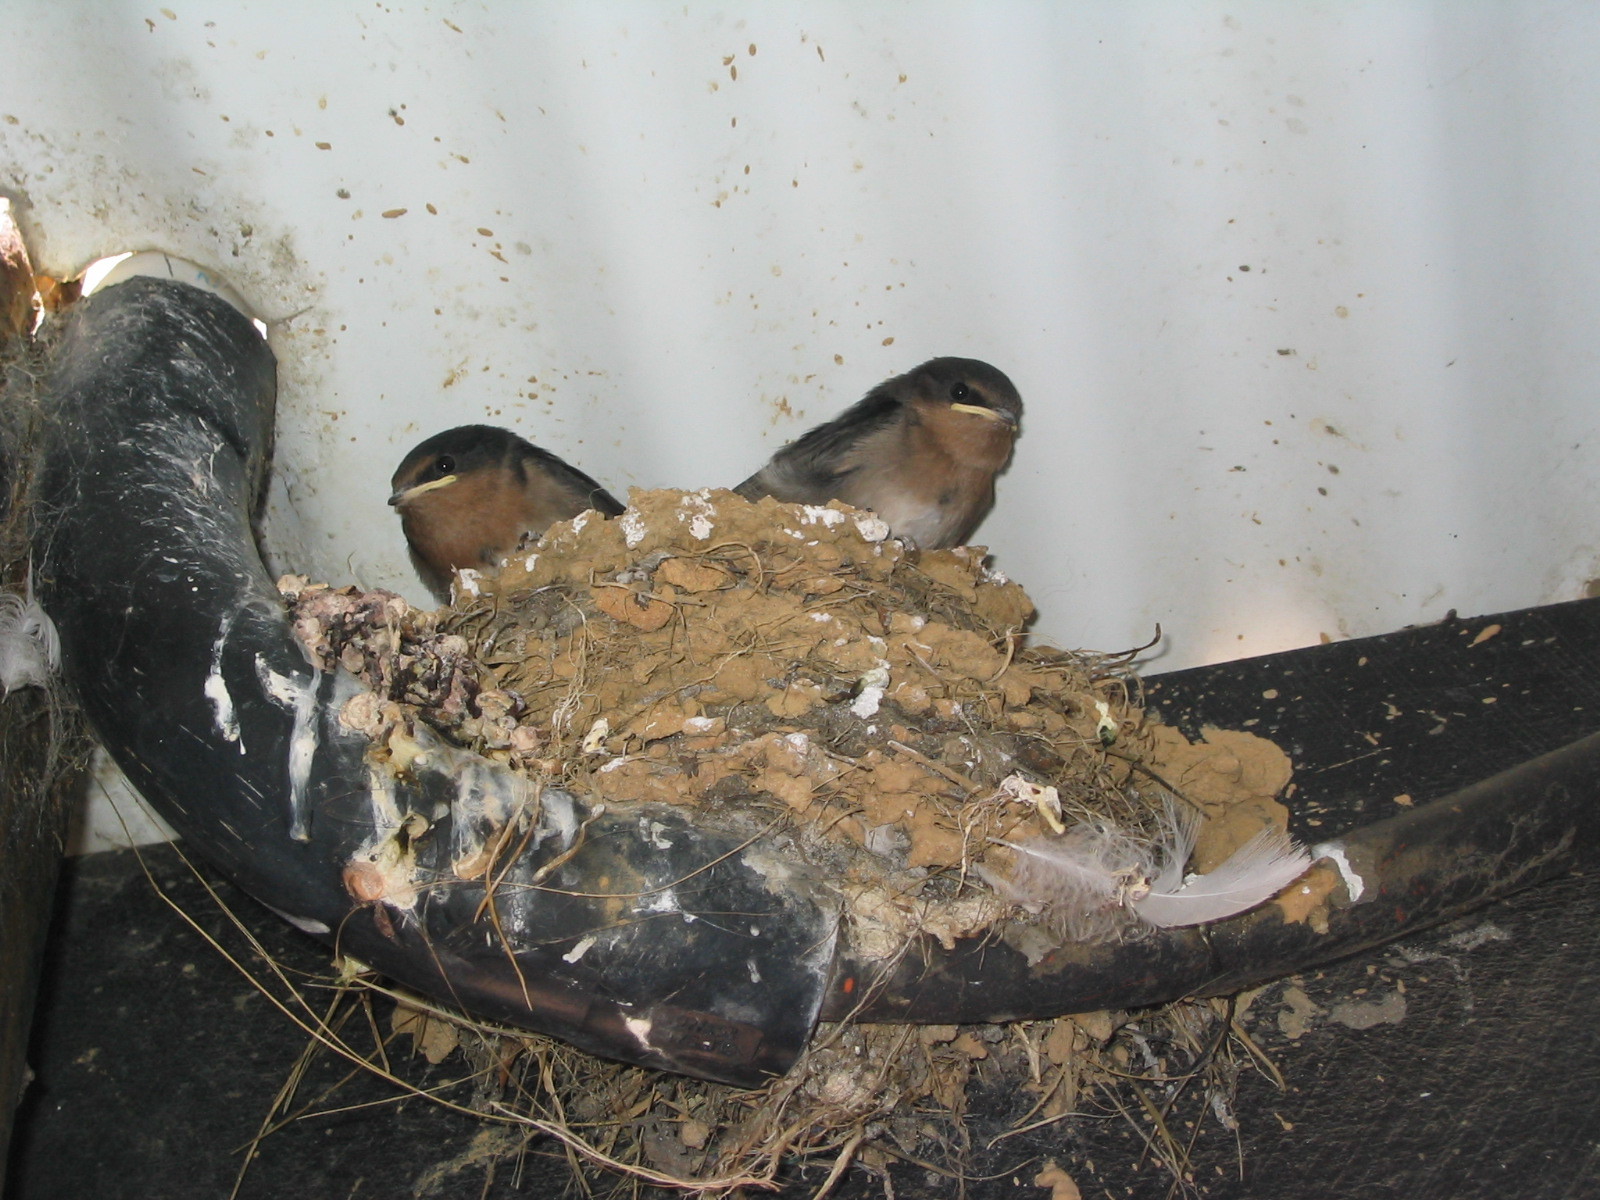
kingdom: Animalia
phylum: Chordata
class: Aves
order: Passeriformes
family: Hirundinidae
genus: Hirundo
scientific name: Hirundo neoxena
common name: Welcome swallow
